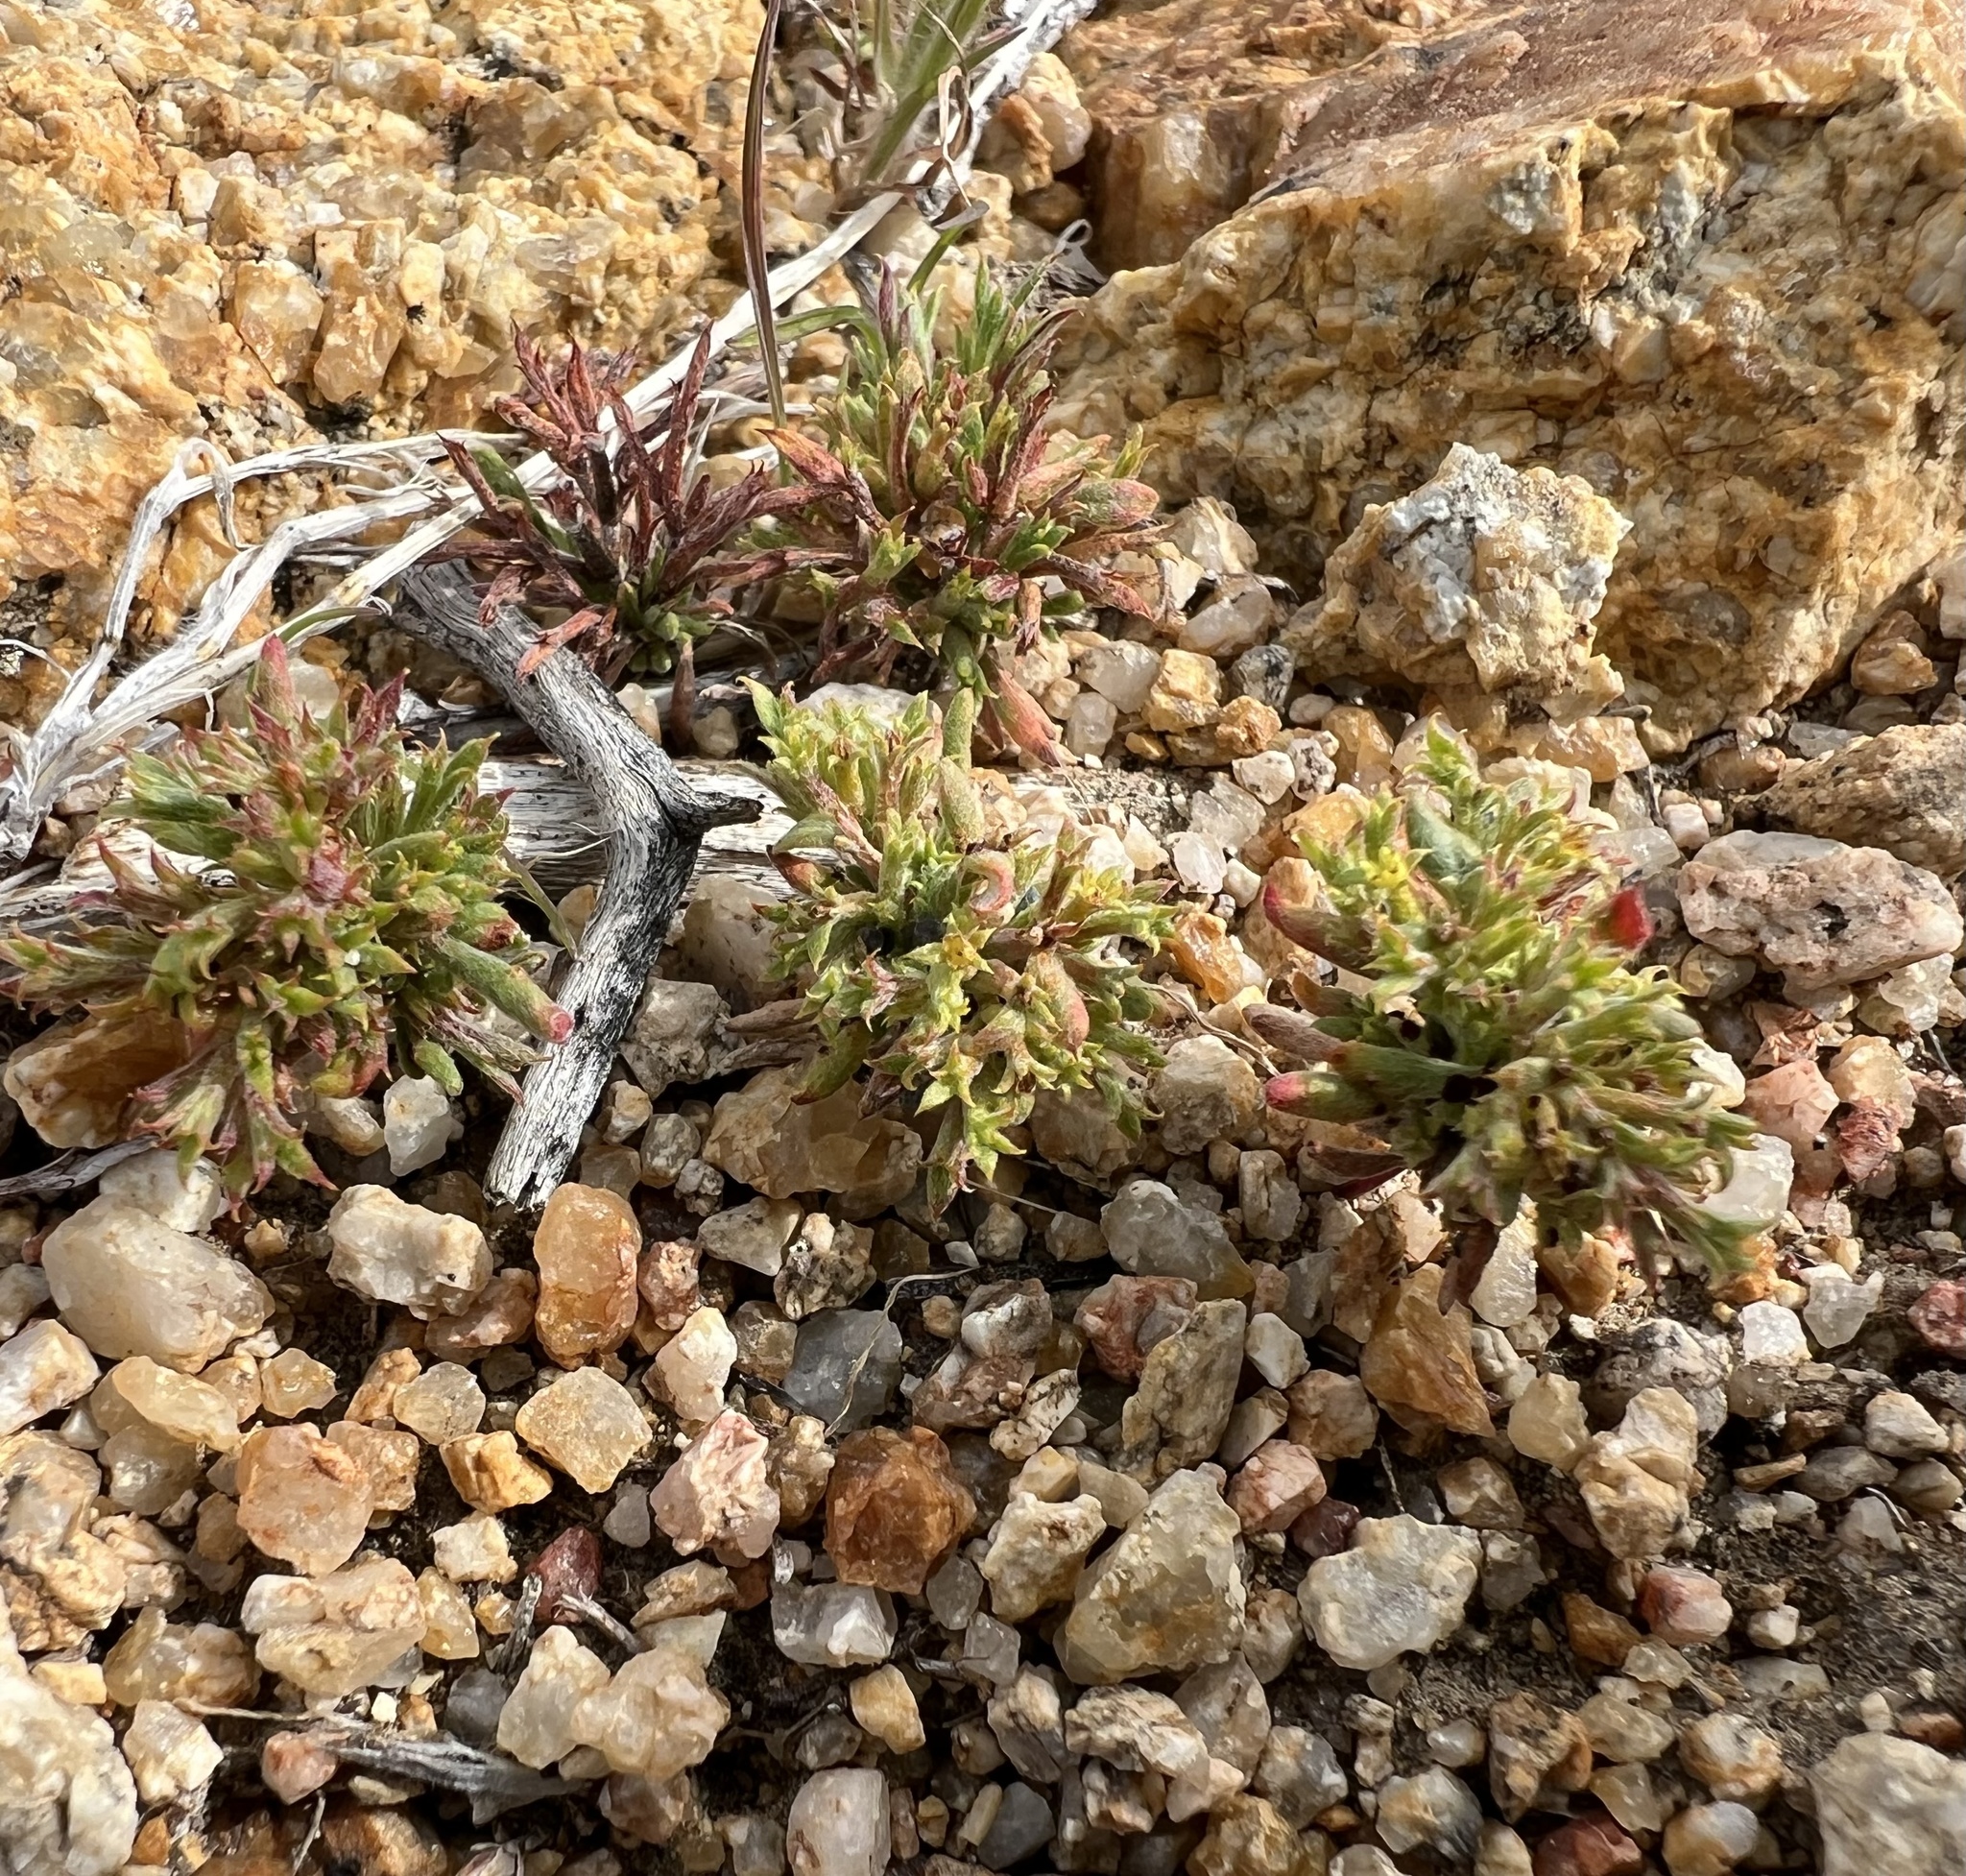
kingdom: Plantae
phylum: Tracheophyta
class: Magnoliopsida
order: Caryophyllales
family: Polygonaceae
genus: Chorizanthe
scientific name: Chorizanthe watsonii
